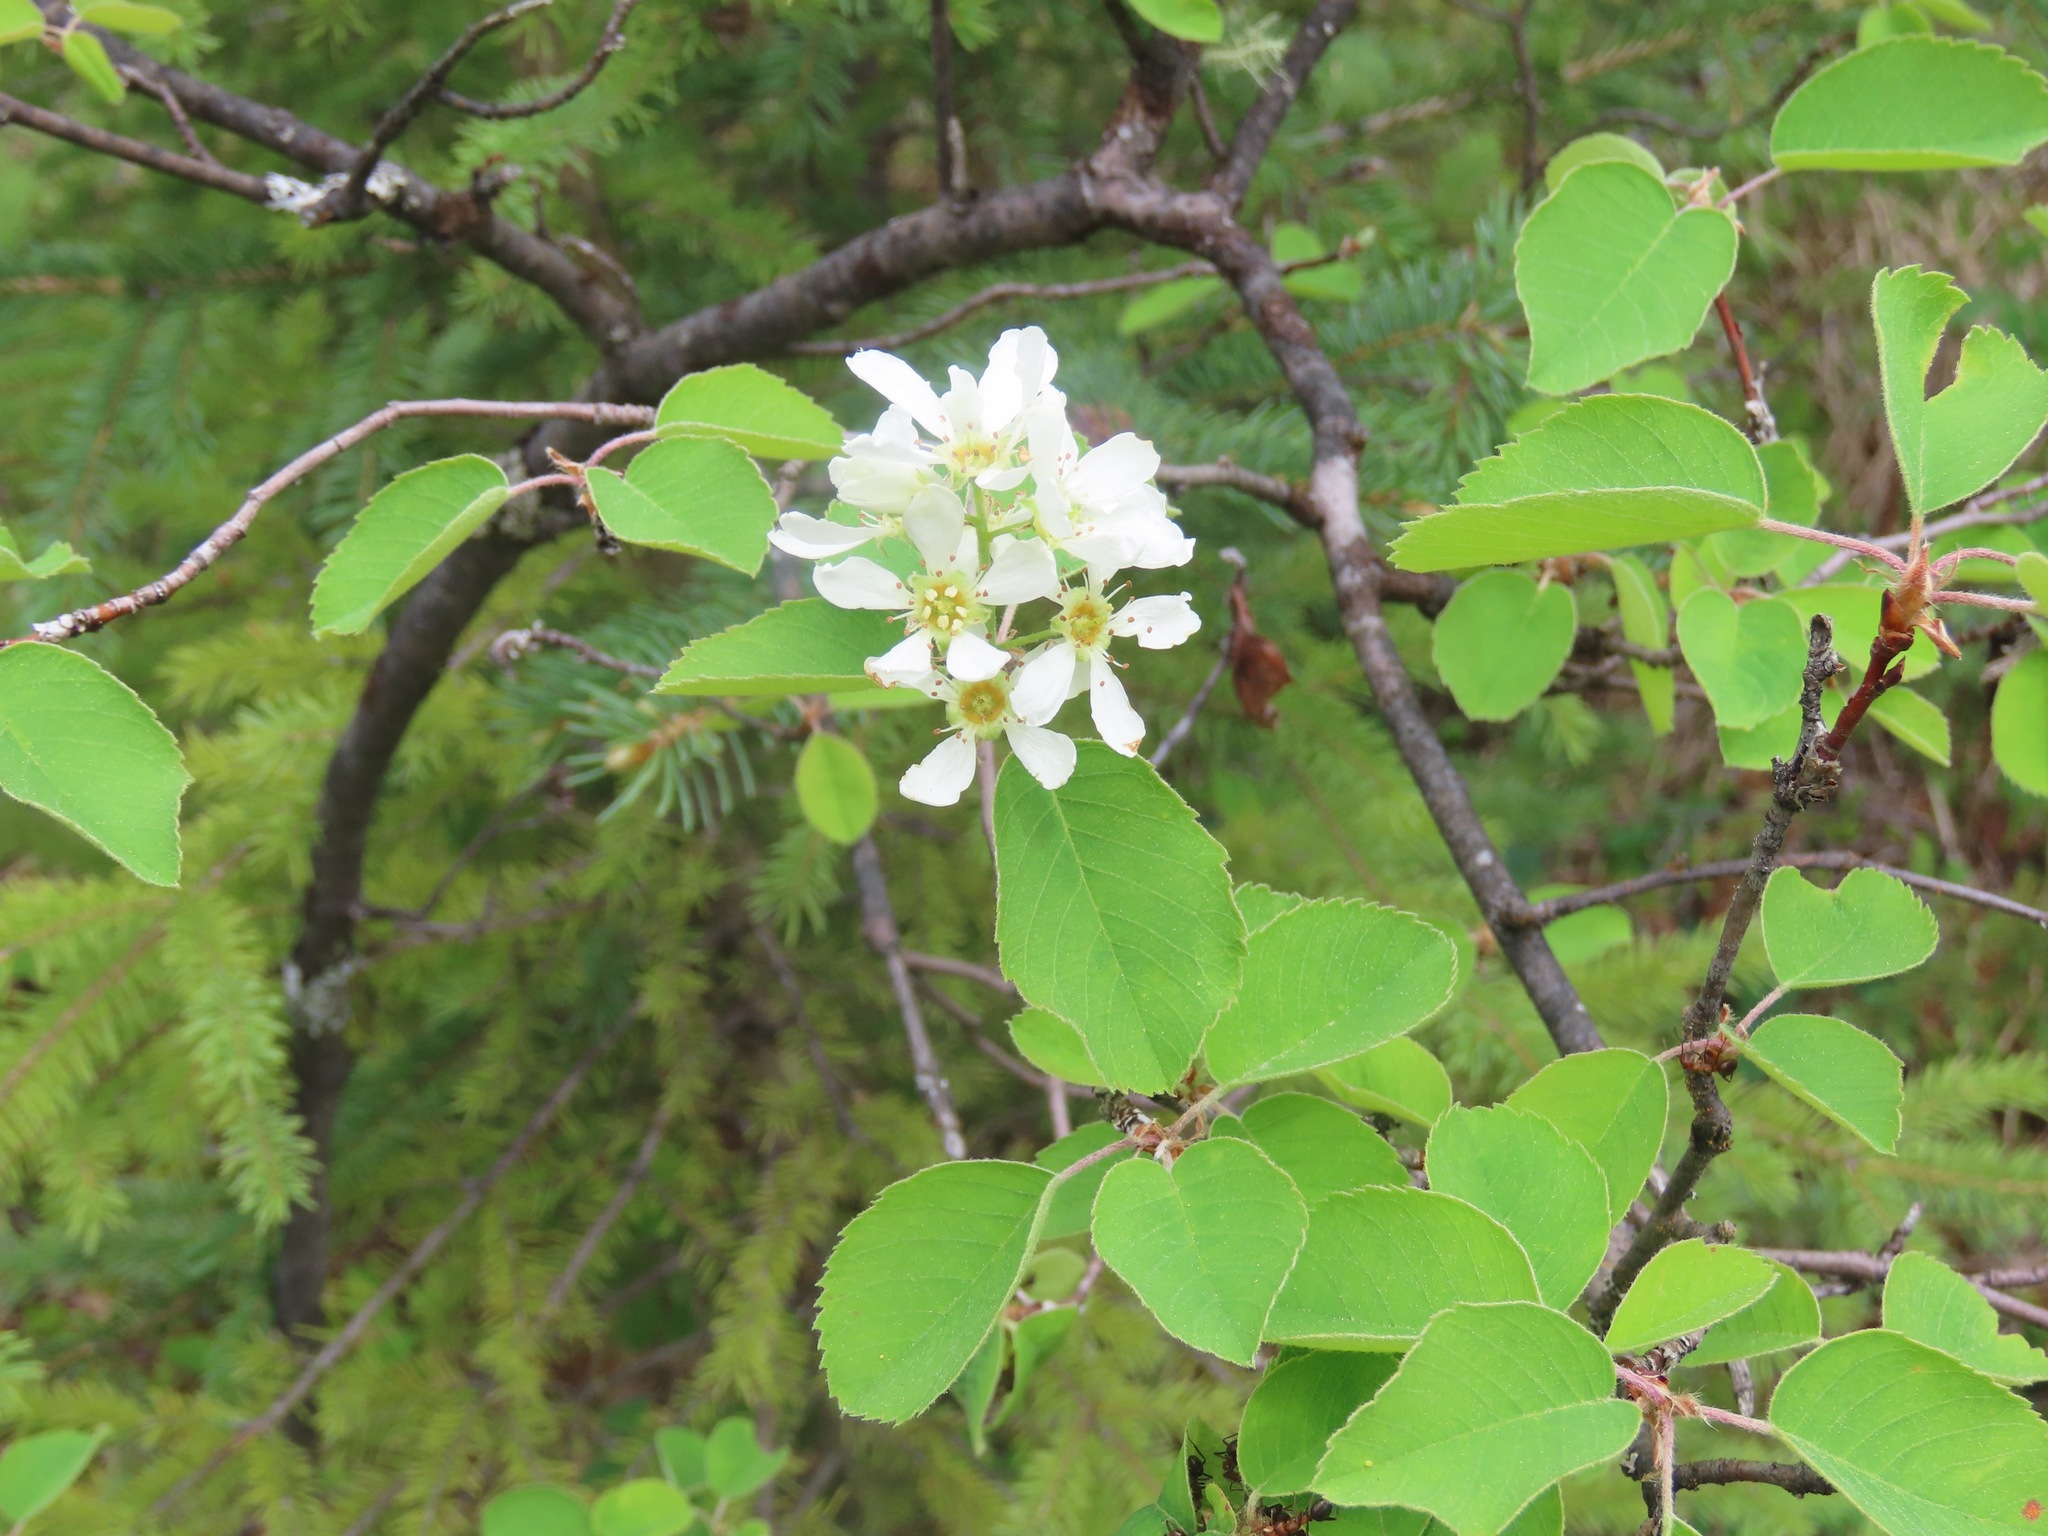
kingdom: Plantae
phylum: Tracheophyta
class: Magnoliopsida
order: Rosales
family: Rosaceae
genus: Amelanchier
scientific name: Amelanchier alnifolia
